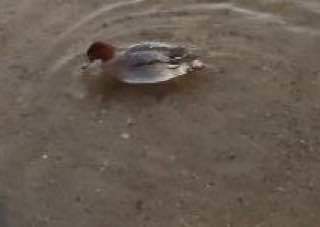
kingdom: Animalia
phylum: Chordata
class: Aves
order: Anseriformes
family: Anatidae
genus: Mareca
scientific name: Mareca penelope
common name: Eurasian wigeon
